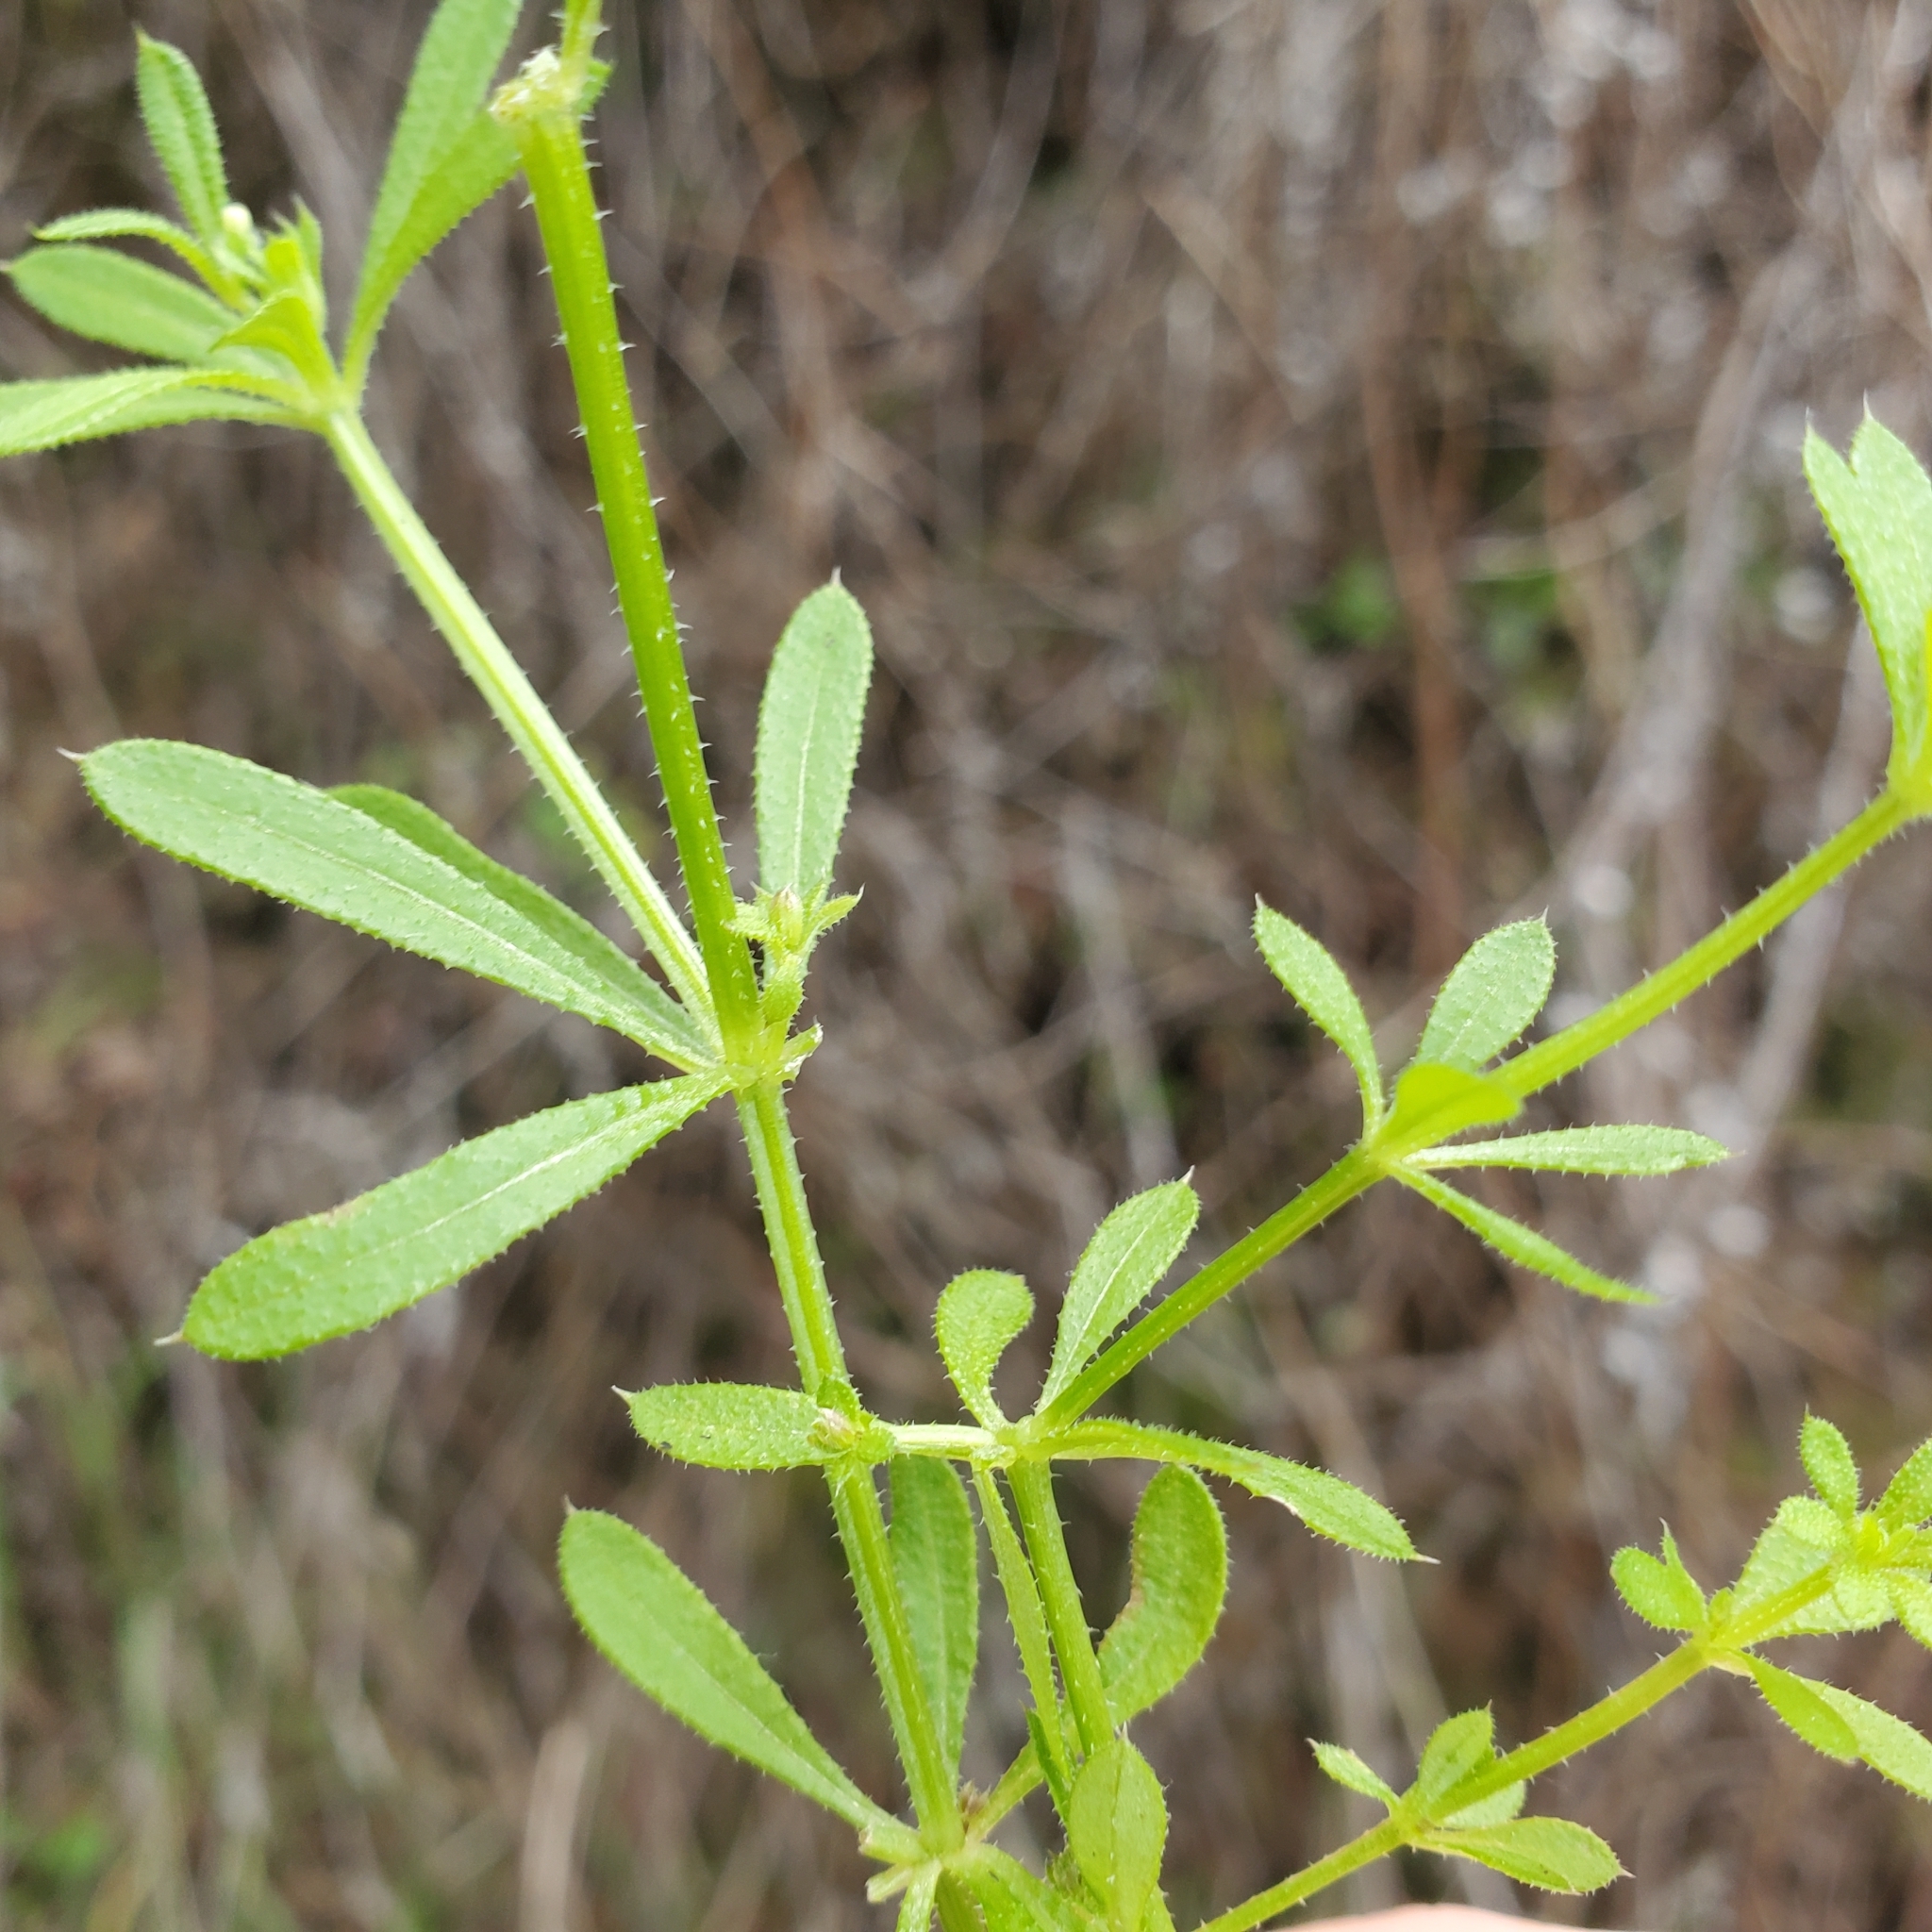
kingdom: Plantae
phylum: Tracheophyta
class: Magnoliopsida
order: Gentianales
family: Rubiaceae
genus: Galium
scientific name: Galium aparine
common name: Cleavers
